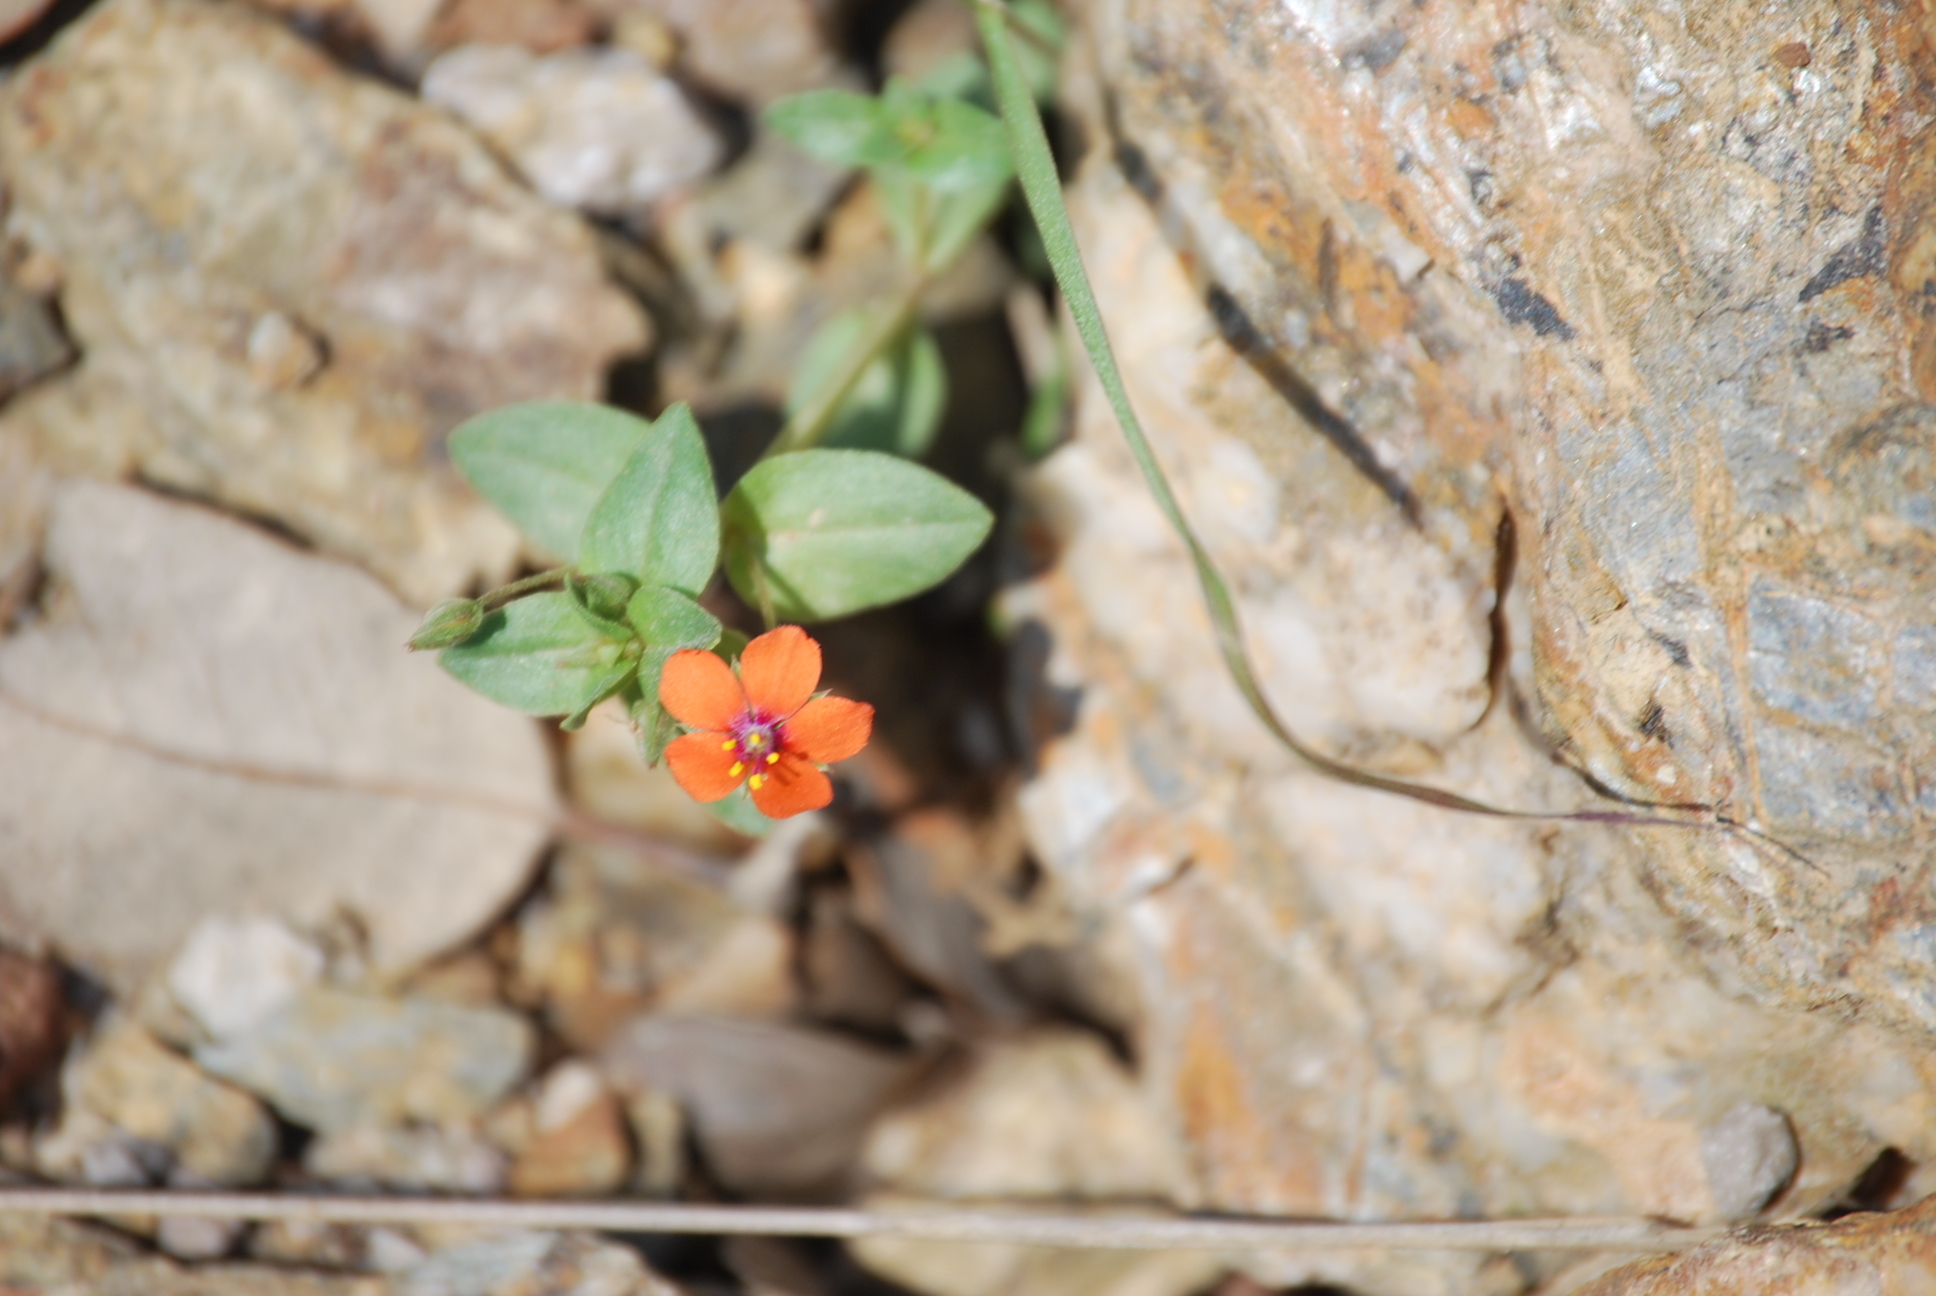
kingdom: Plantae
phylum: Tracheophyta
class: Magnoliopsida
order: Ericales
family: Primulaceae
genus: Lysimachia
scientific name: Lysimachia arvensis
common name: Scarlet pimpernel
